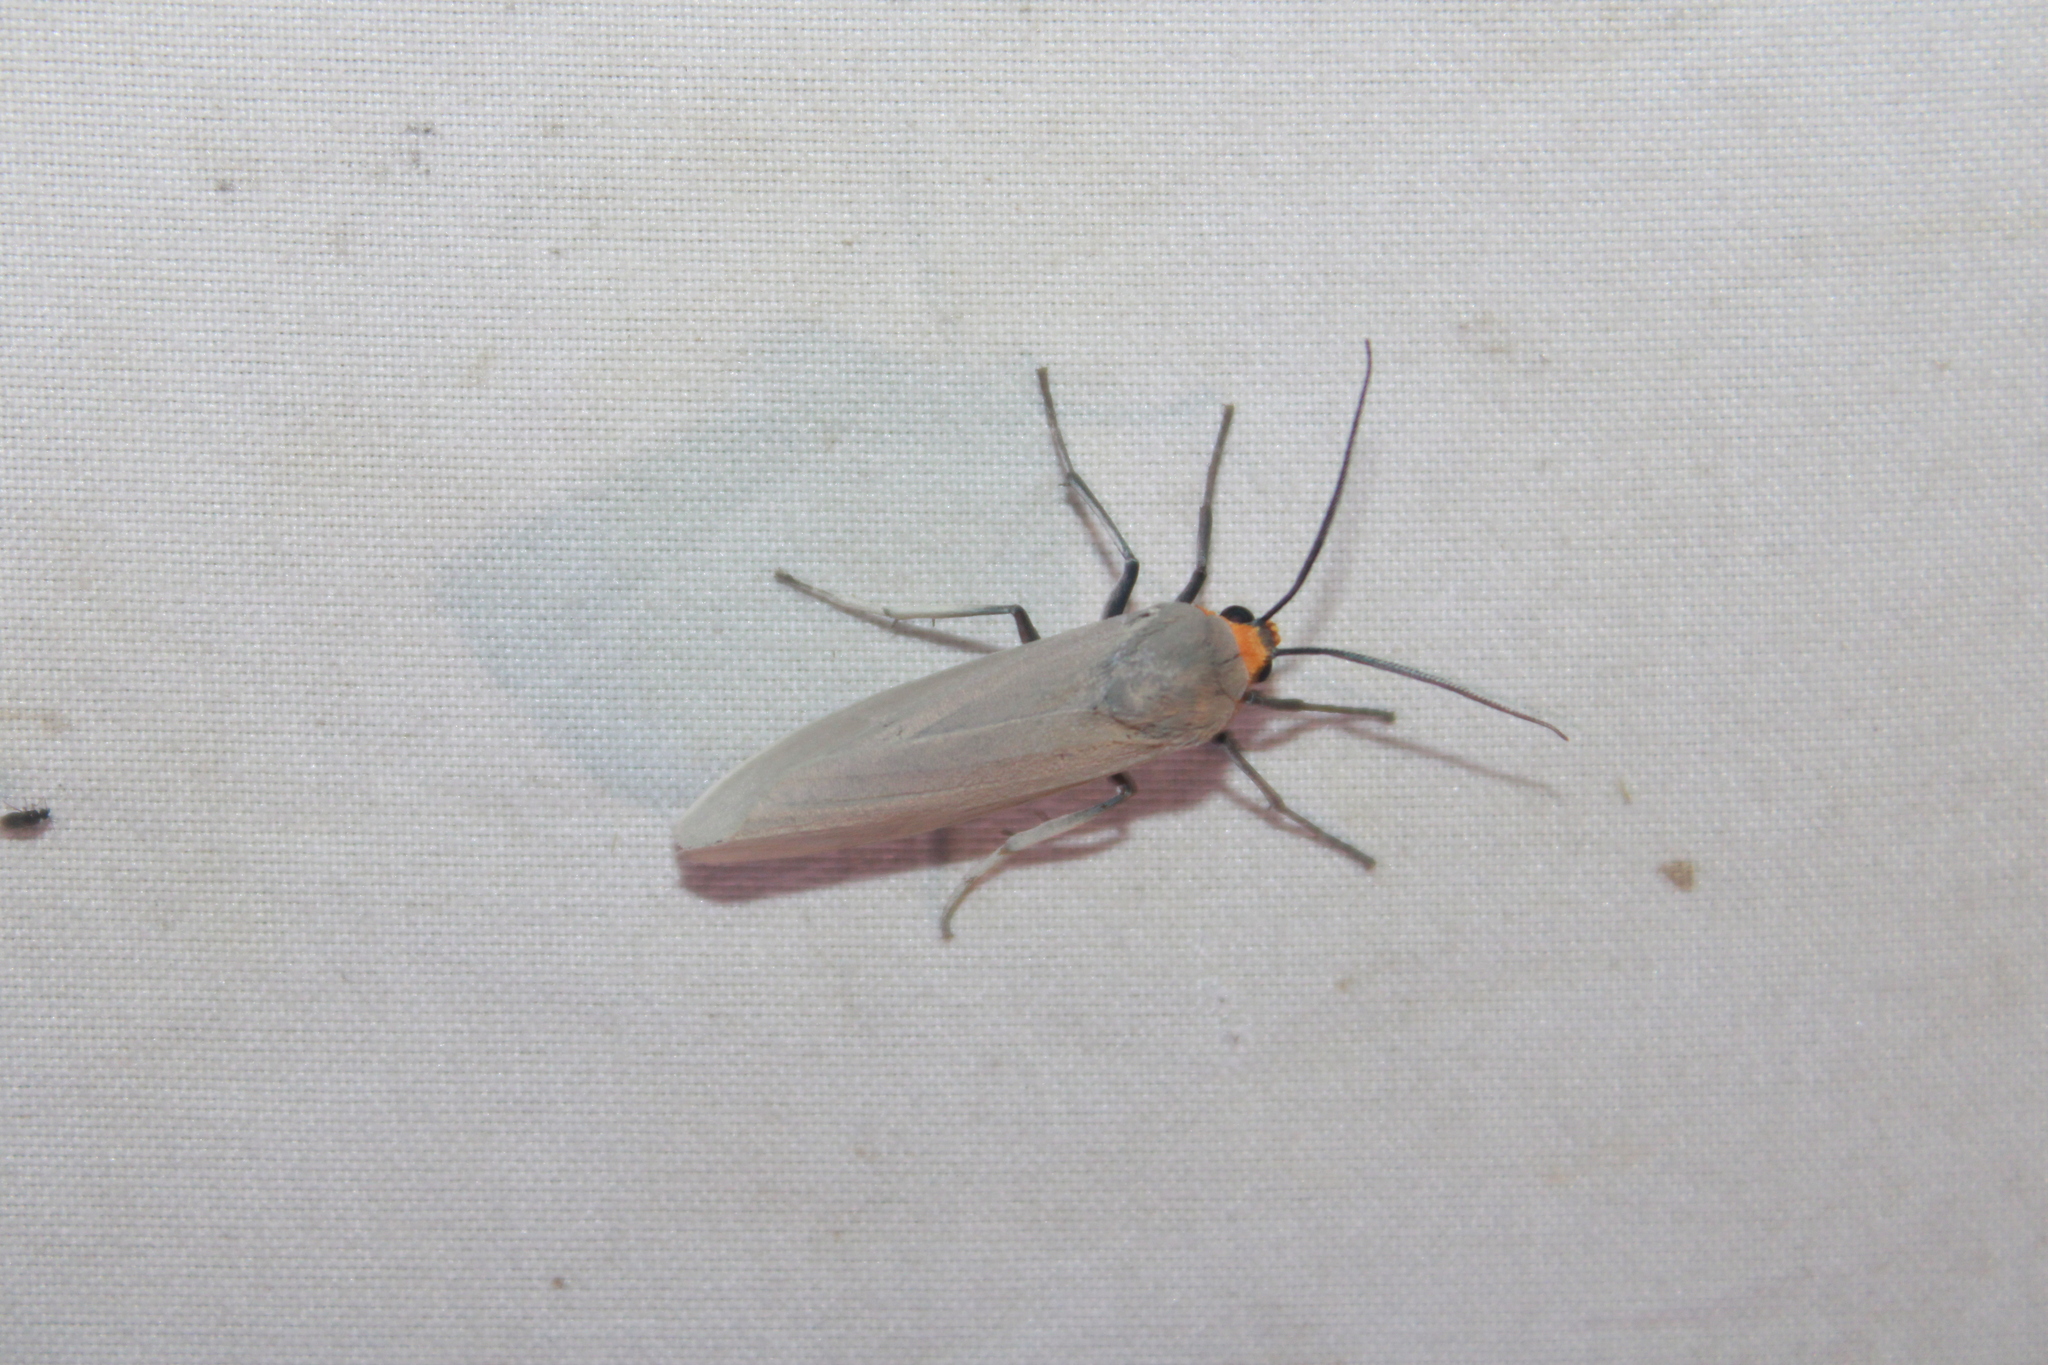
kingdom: Animalia
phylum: Arthropoda
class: Insecta
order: Lepidoptera
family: Erebidae
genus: Lymire
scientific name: Lymire edwardsii
